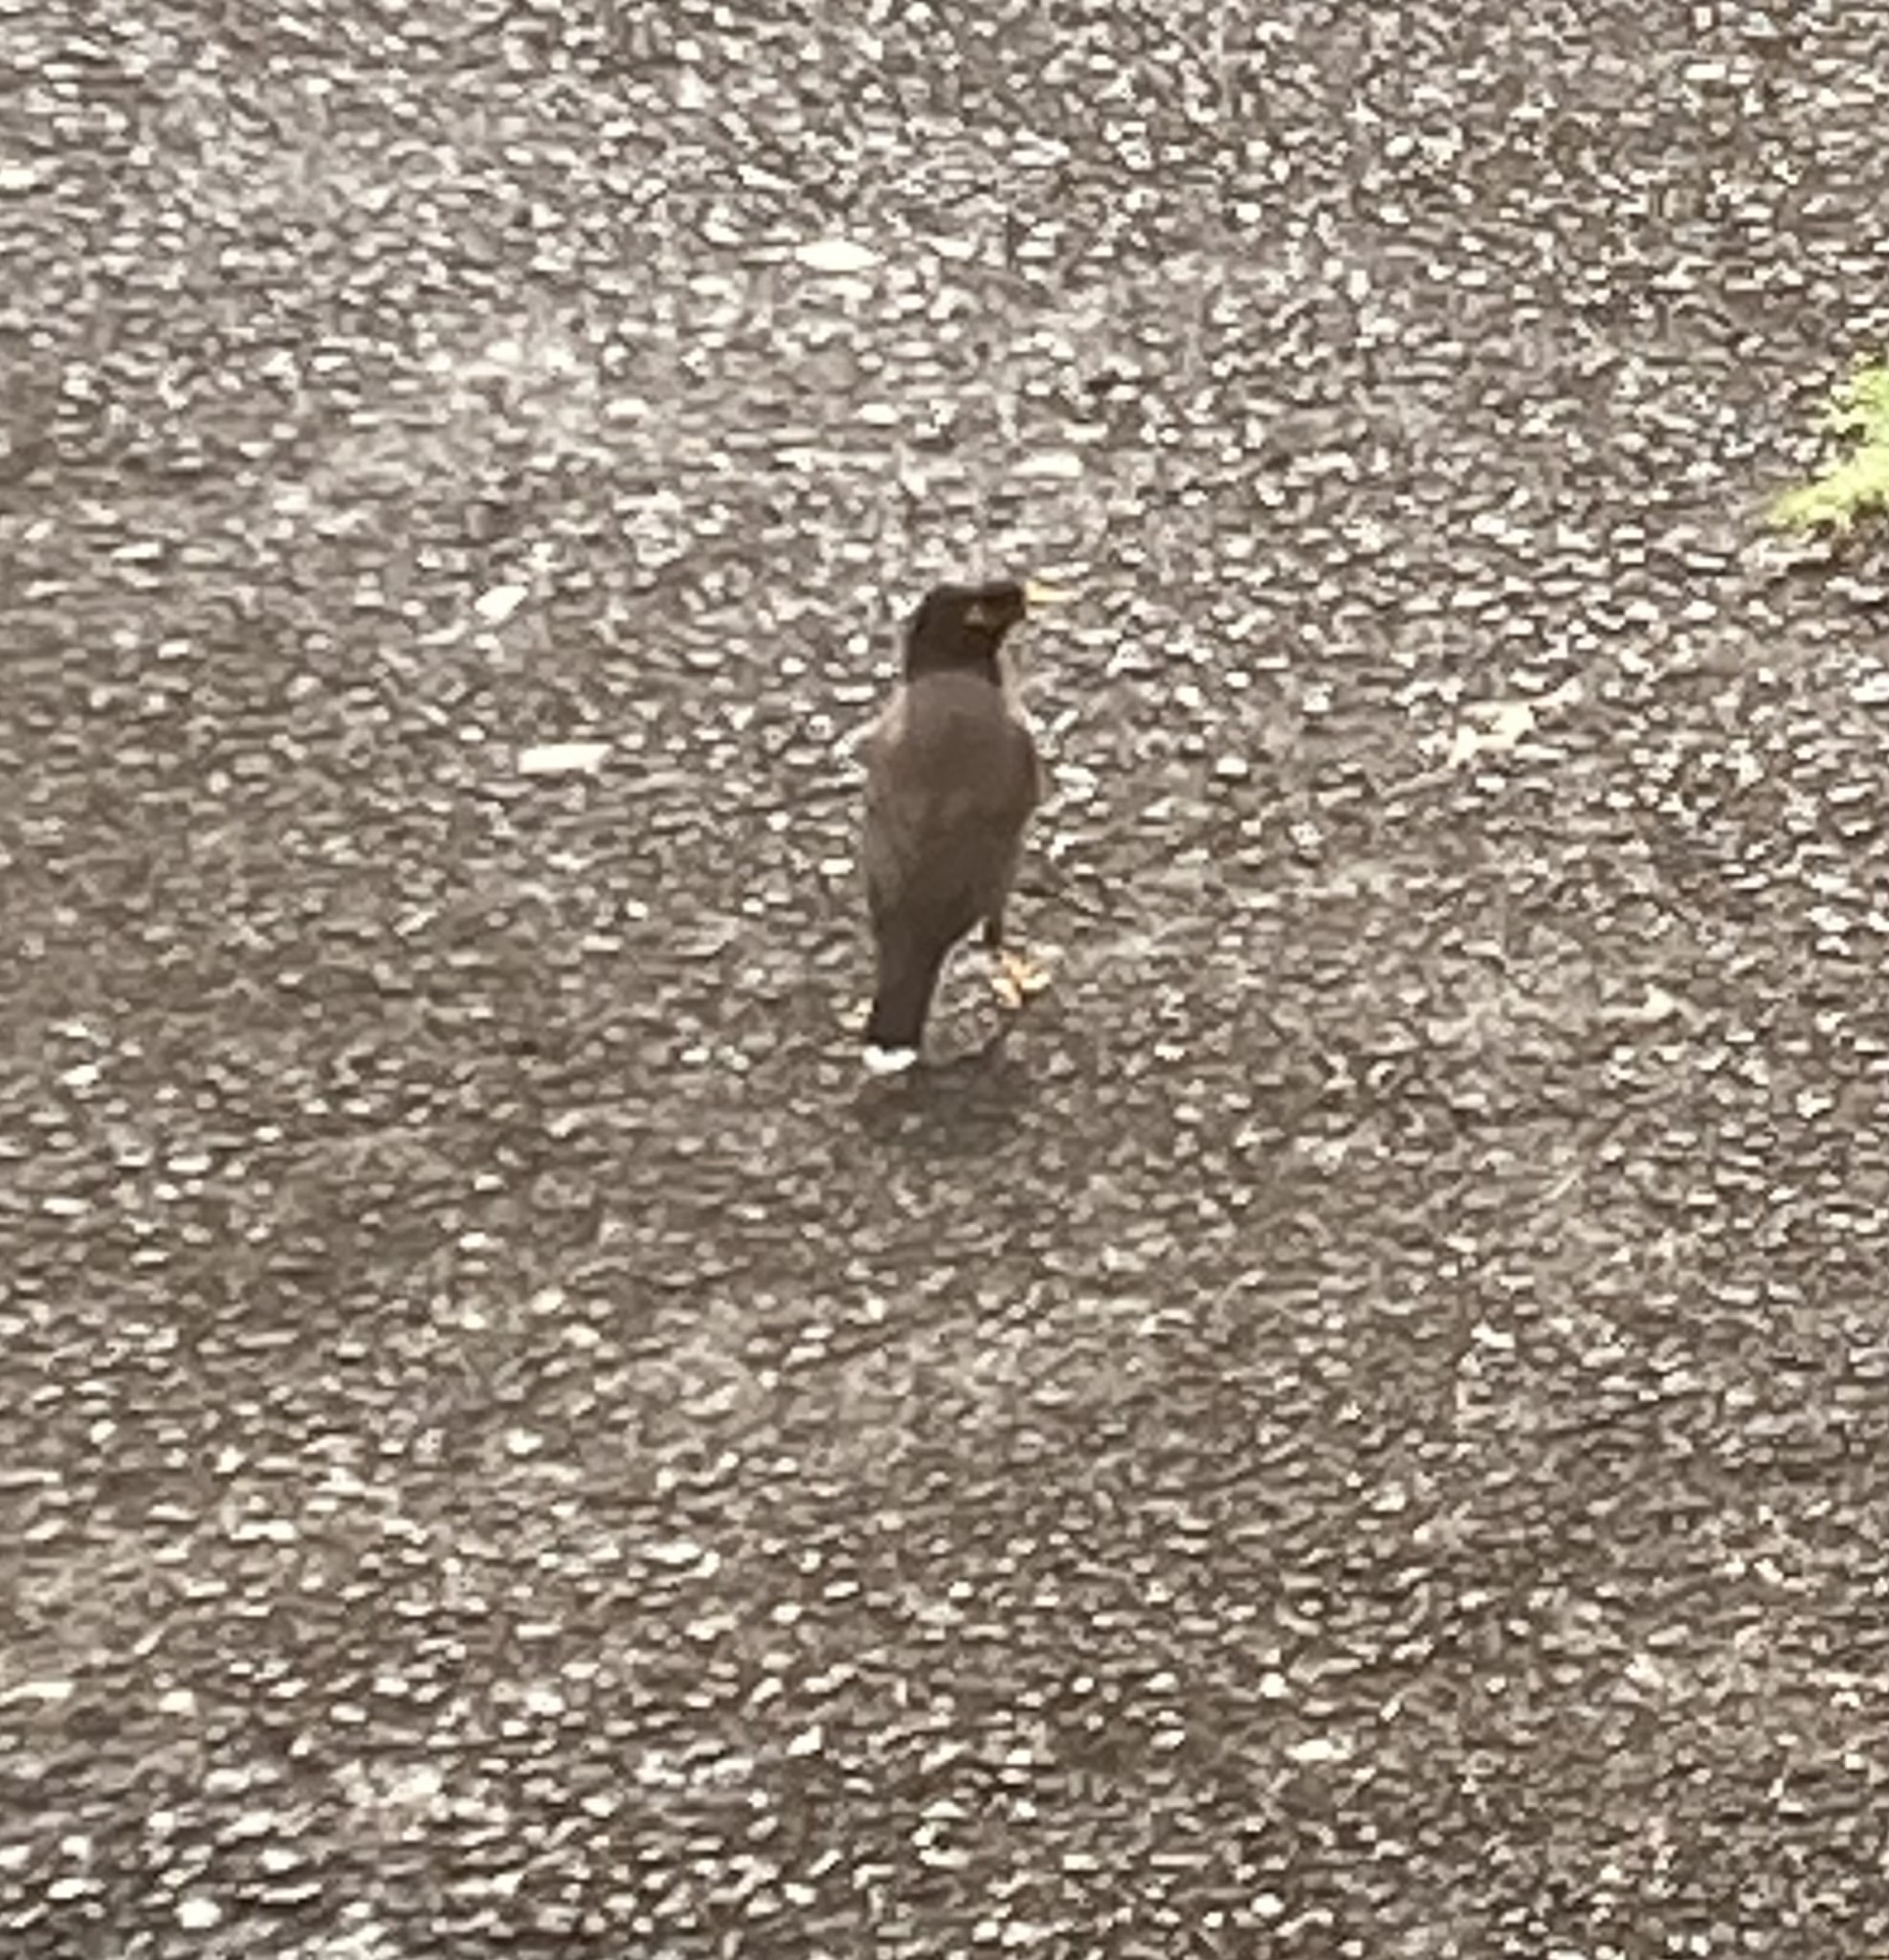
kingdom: Animalia
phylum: Chordata
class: Aves
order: Passeriformes
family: Sturnidae
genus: Acridotheres
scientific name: Acridotheres tristis
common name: Common myna
